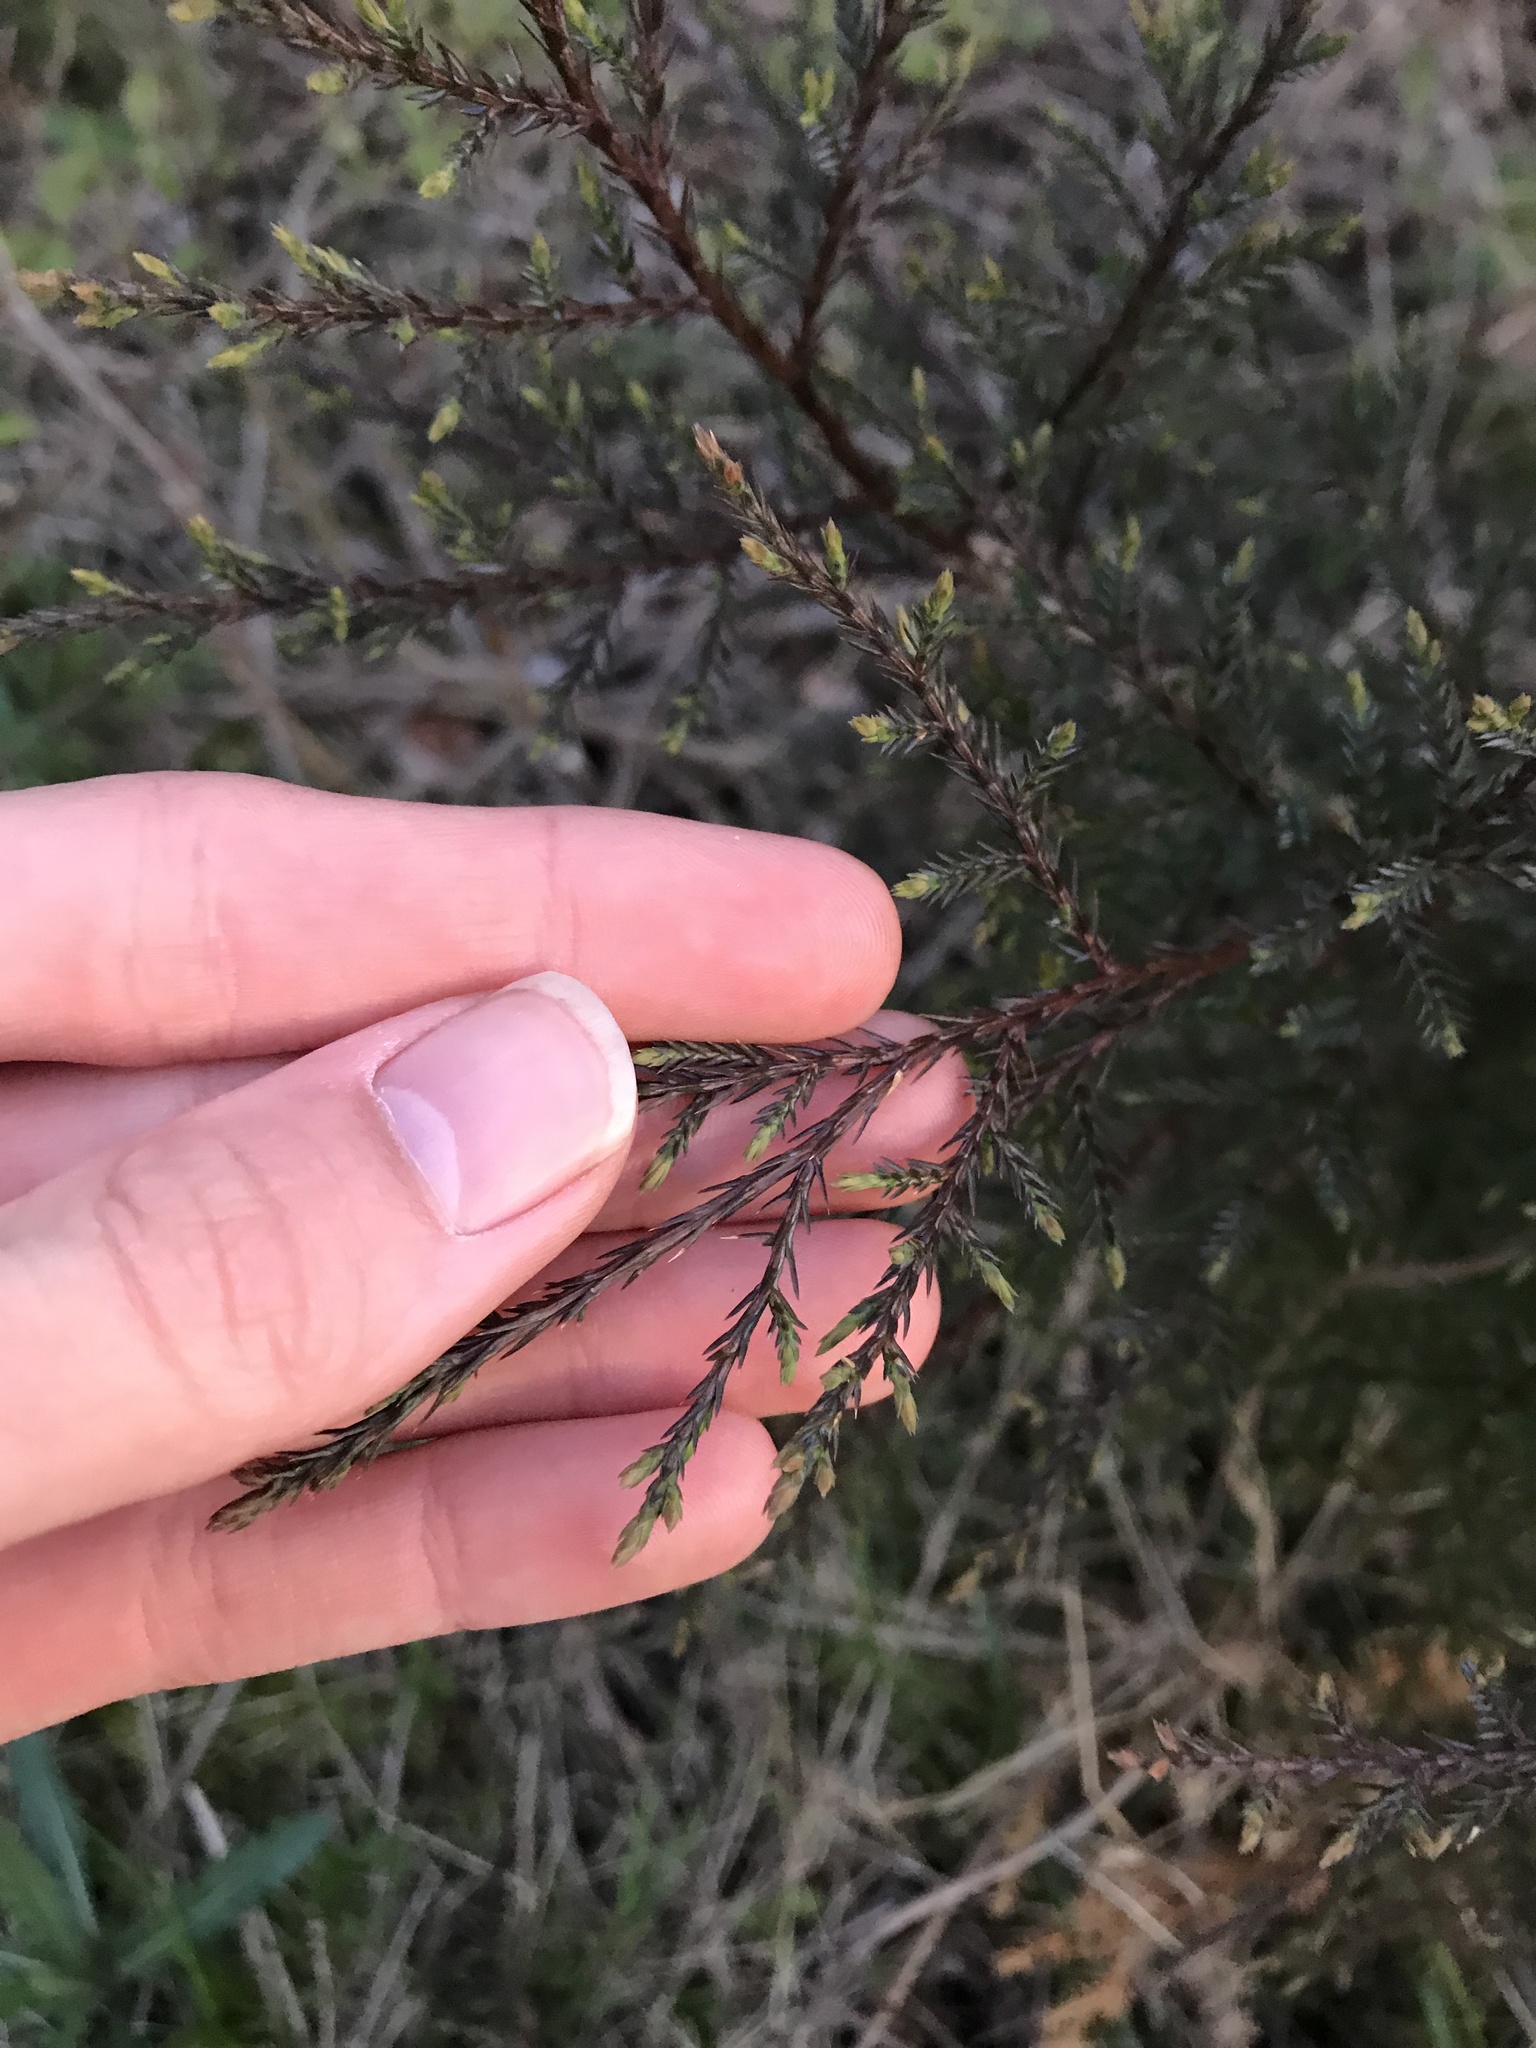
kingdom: Plantae
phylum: Tracheophyta
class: Pinopsida
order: Pinales
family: Cupressaceae
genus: Juniperus
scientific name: Juniperus virginiana
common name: Red juniper
